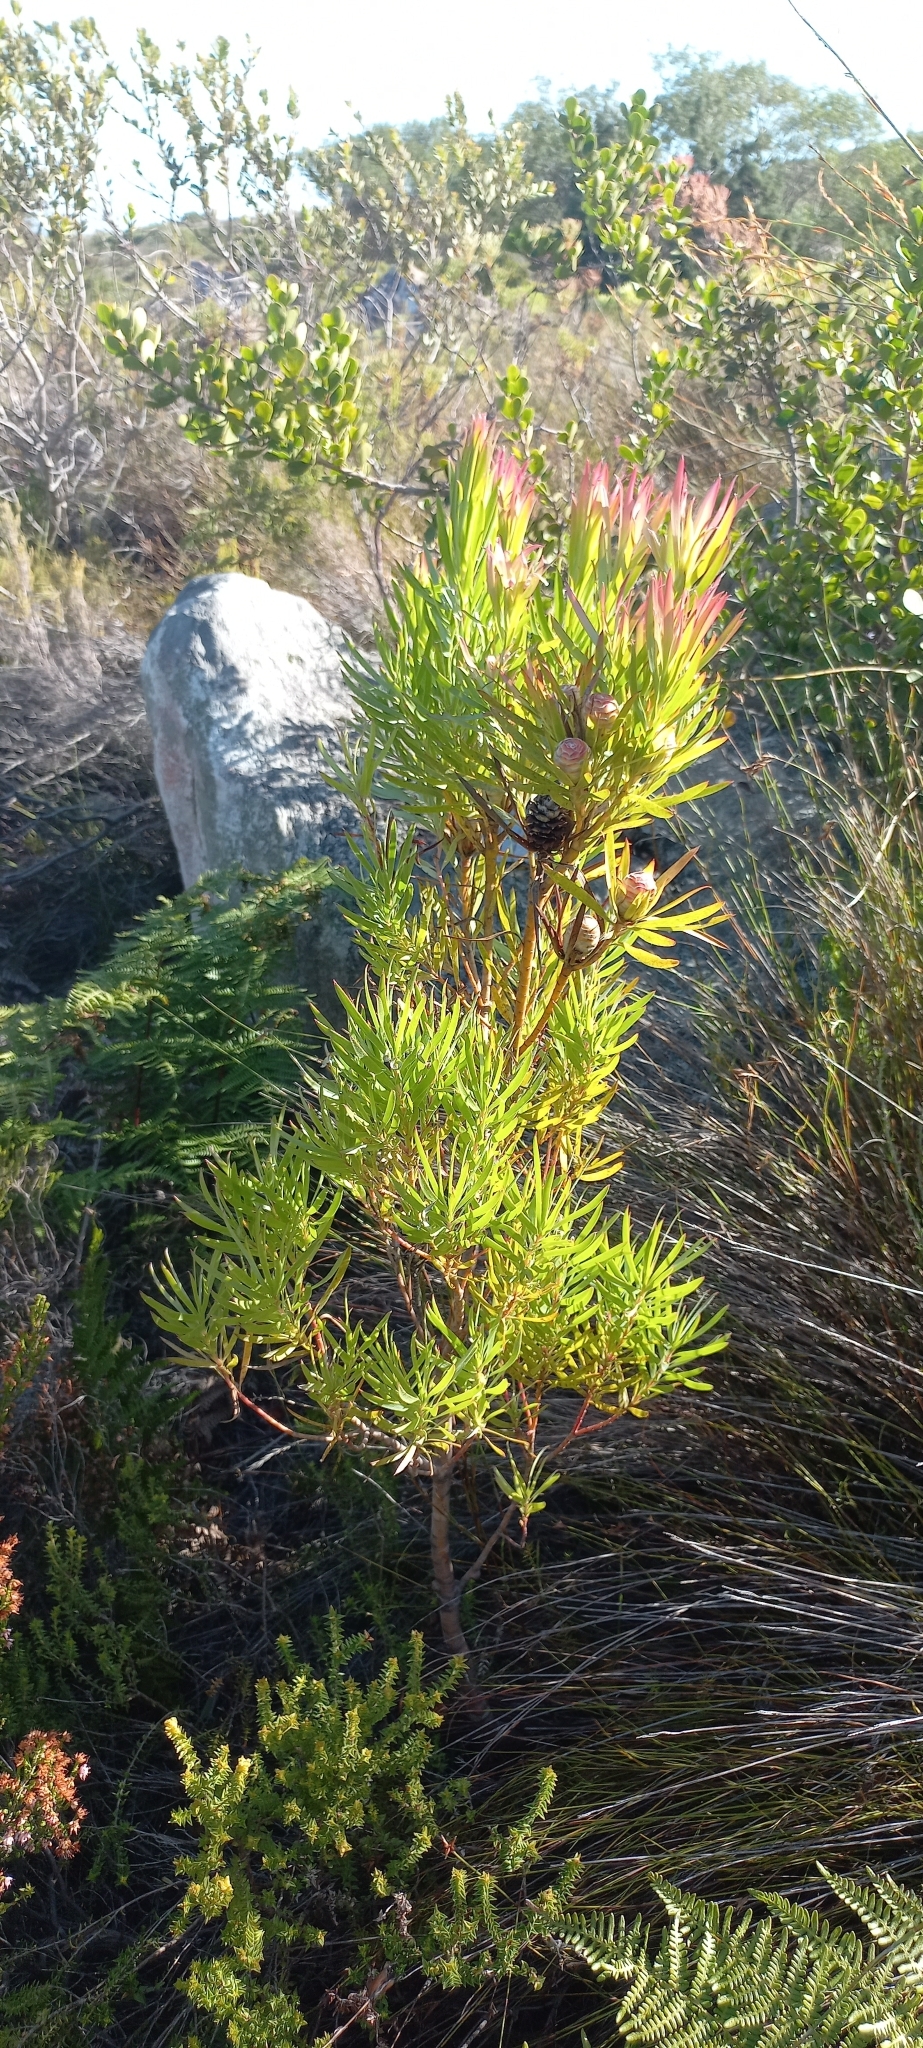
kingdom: Plantae
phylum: Tracheophyta
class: Magnoliopsida
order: Proteales
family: Proteaceae
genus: Leucadendron
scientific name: Leucadendron xanthoconus
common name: Sickle-leaf conebush
